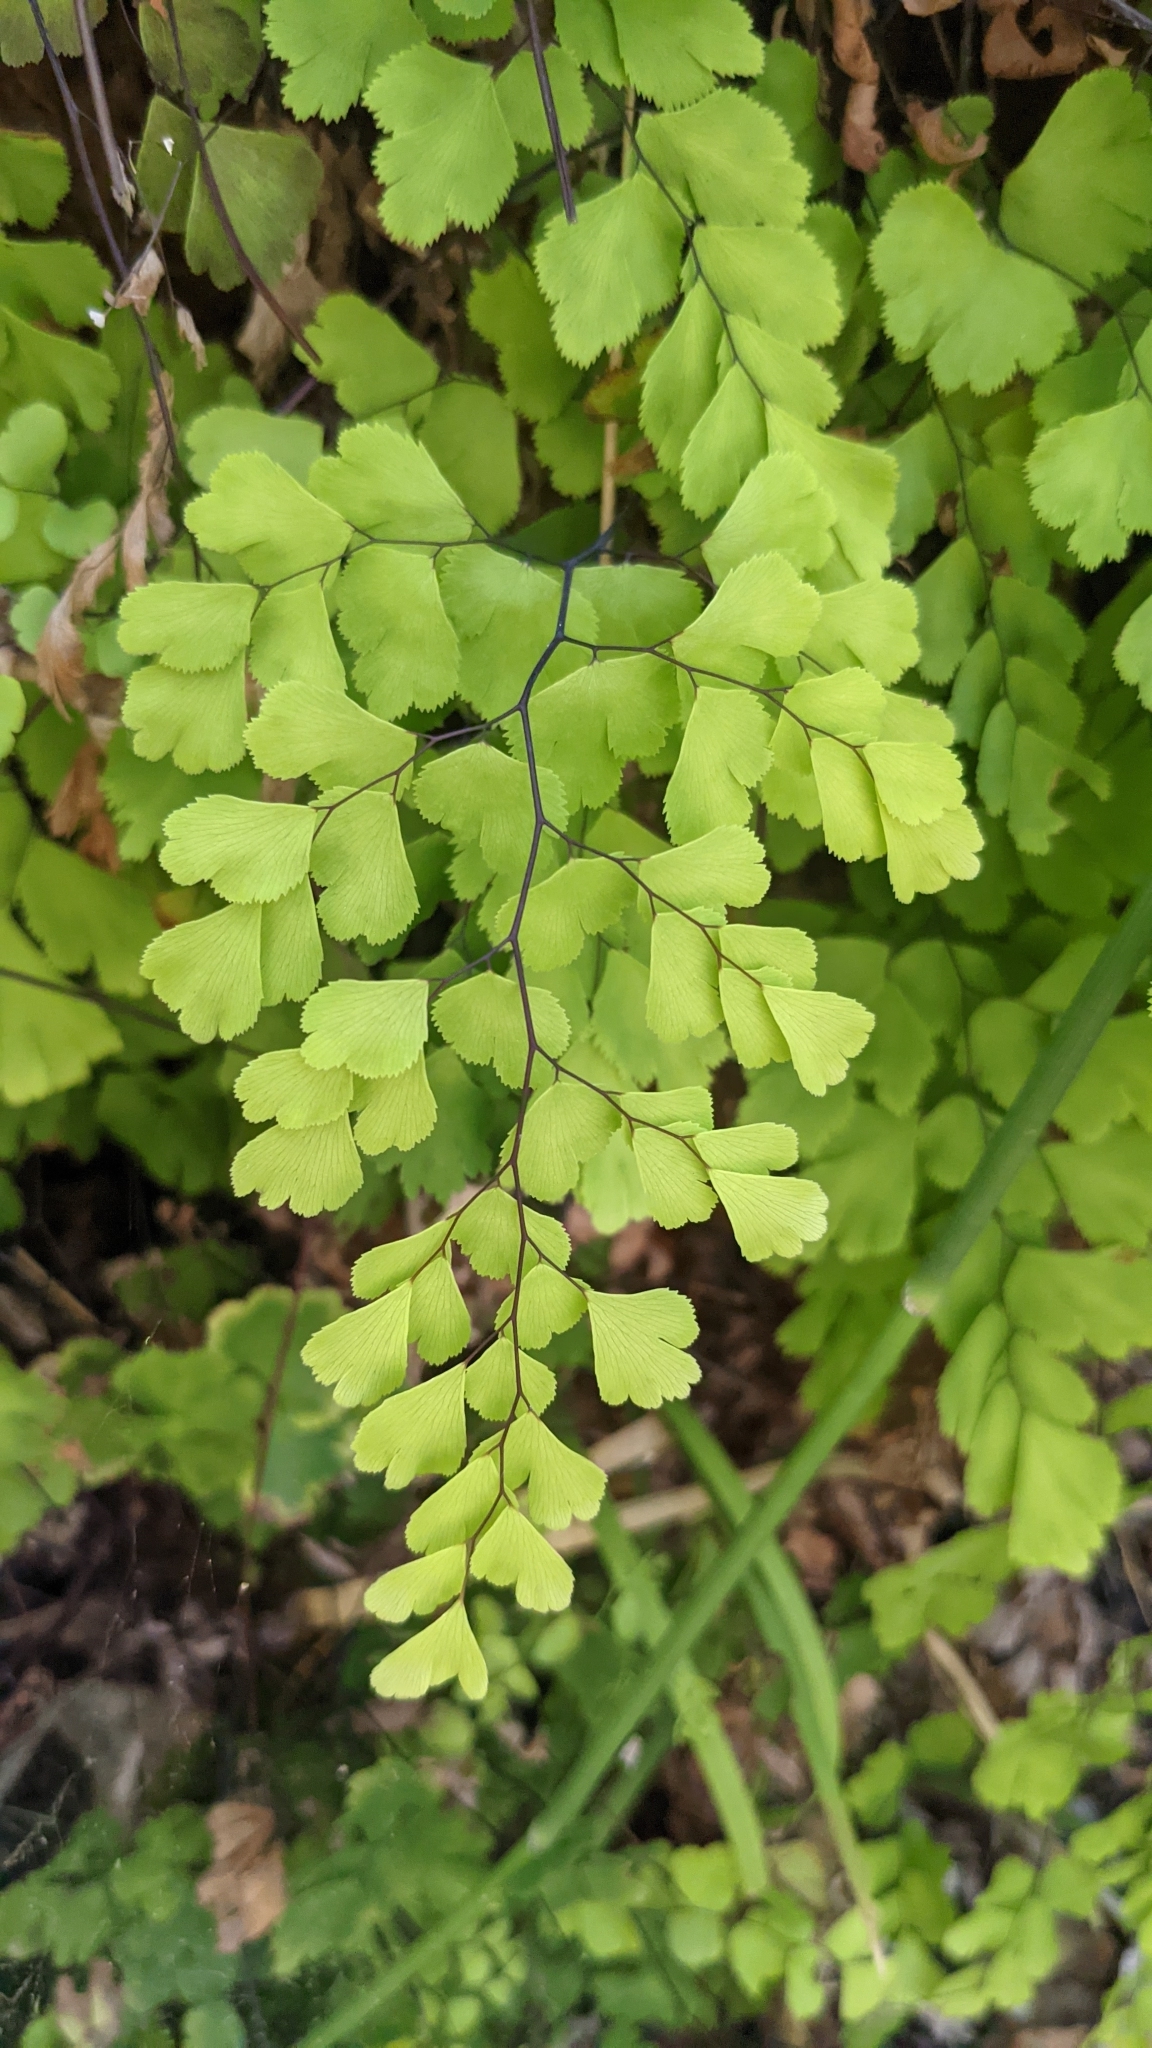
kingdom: Plantae
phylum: Tracheophyta
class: Polypodiopsida
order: Polypodiales
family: Pteridaceae
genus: Adiantum
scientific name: Adiantum capillus-veneris
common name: Maidenhair fern
